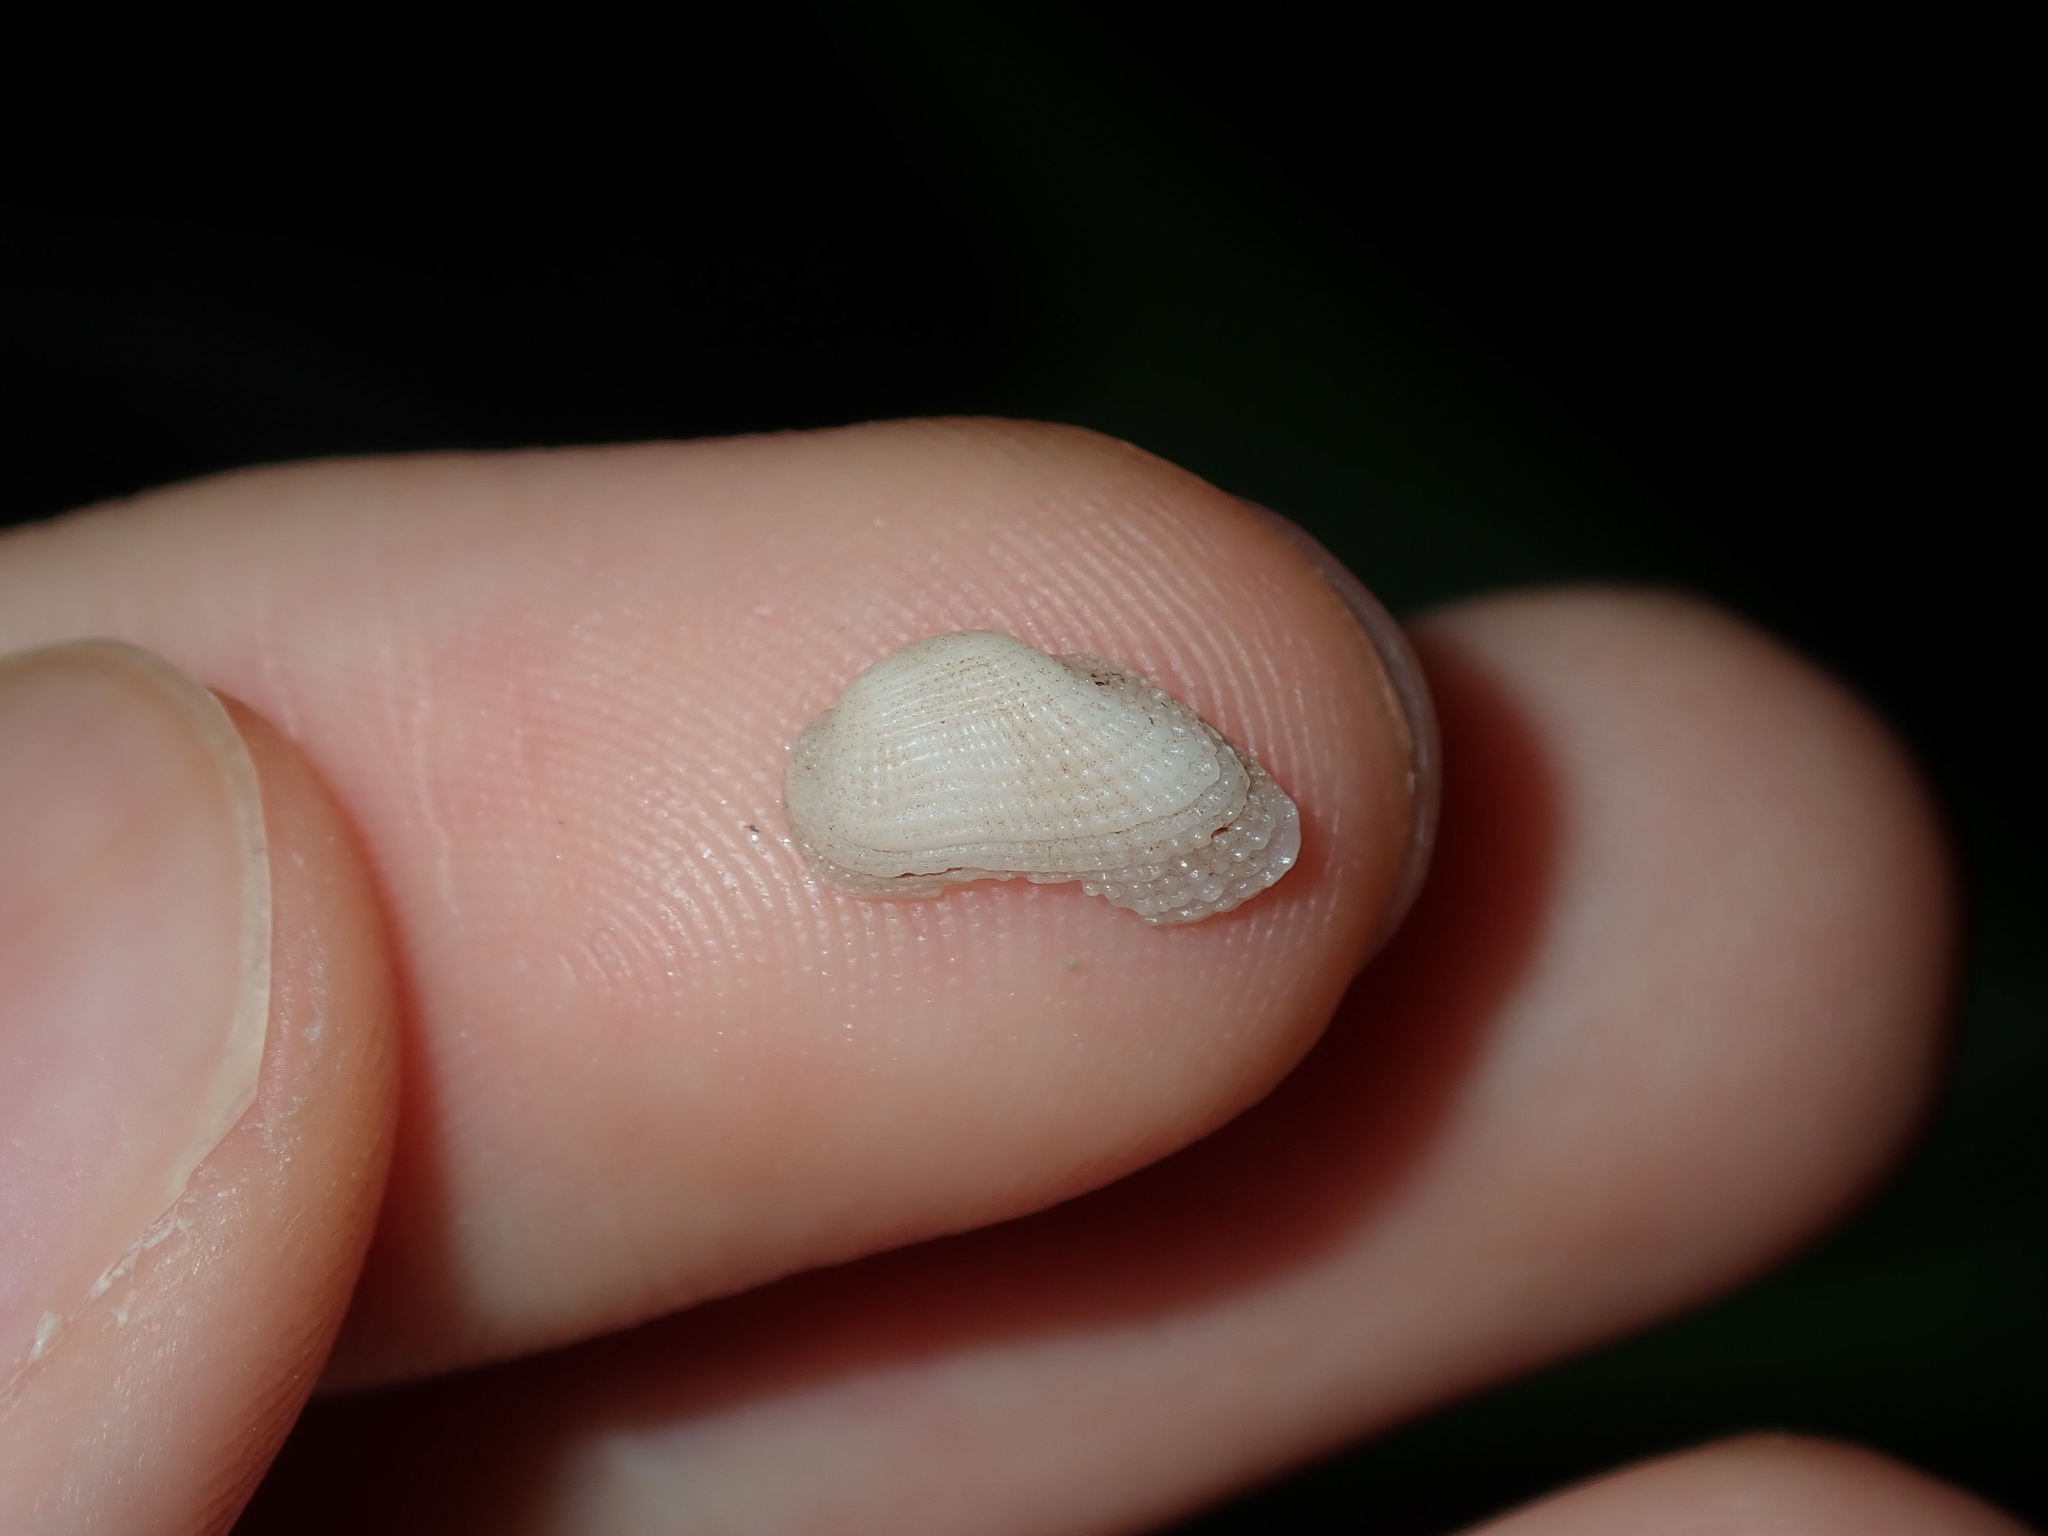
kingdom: Animalia
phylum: Mollusca
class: Bivalvia
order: Arcida
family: Arcidae
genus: Acar
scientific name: Acar botanica
